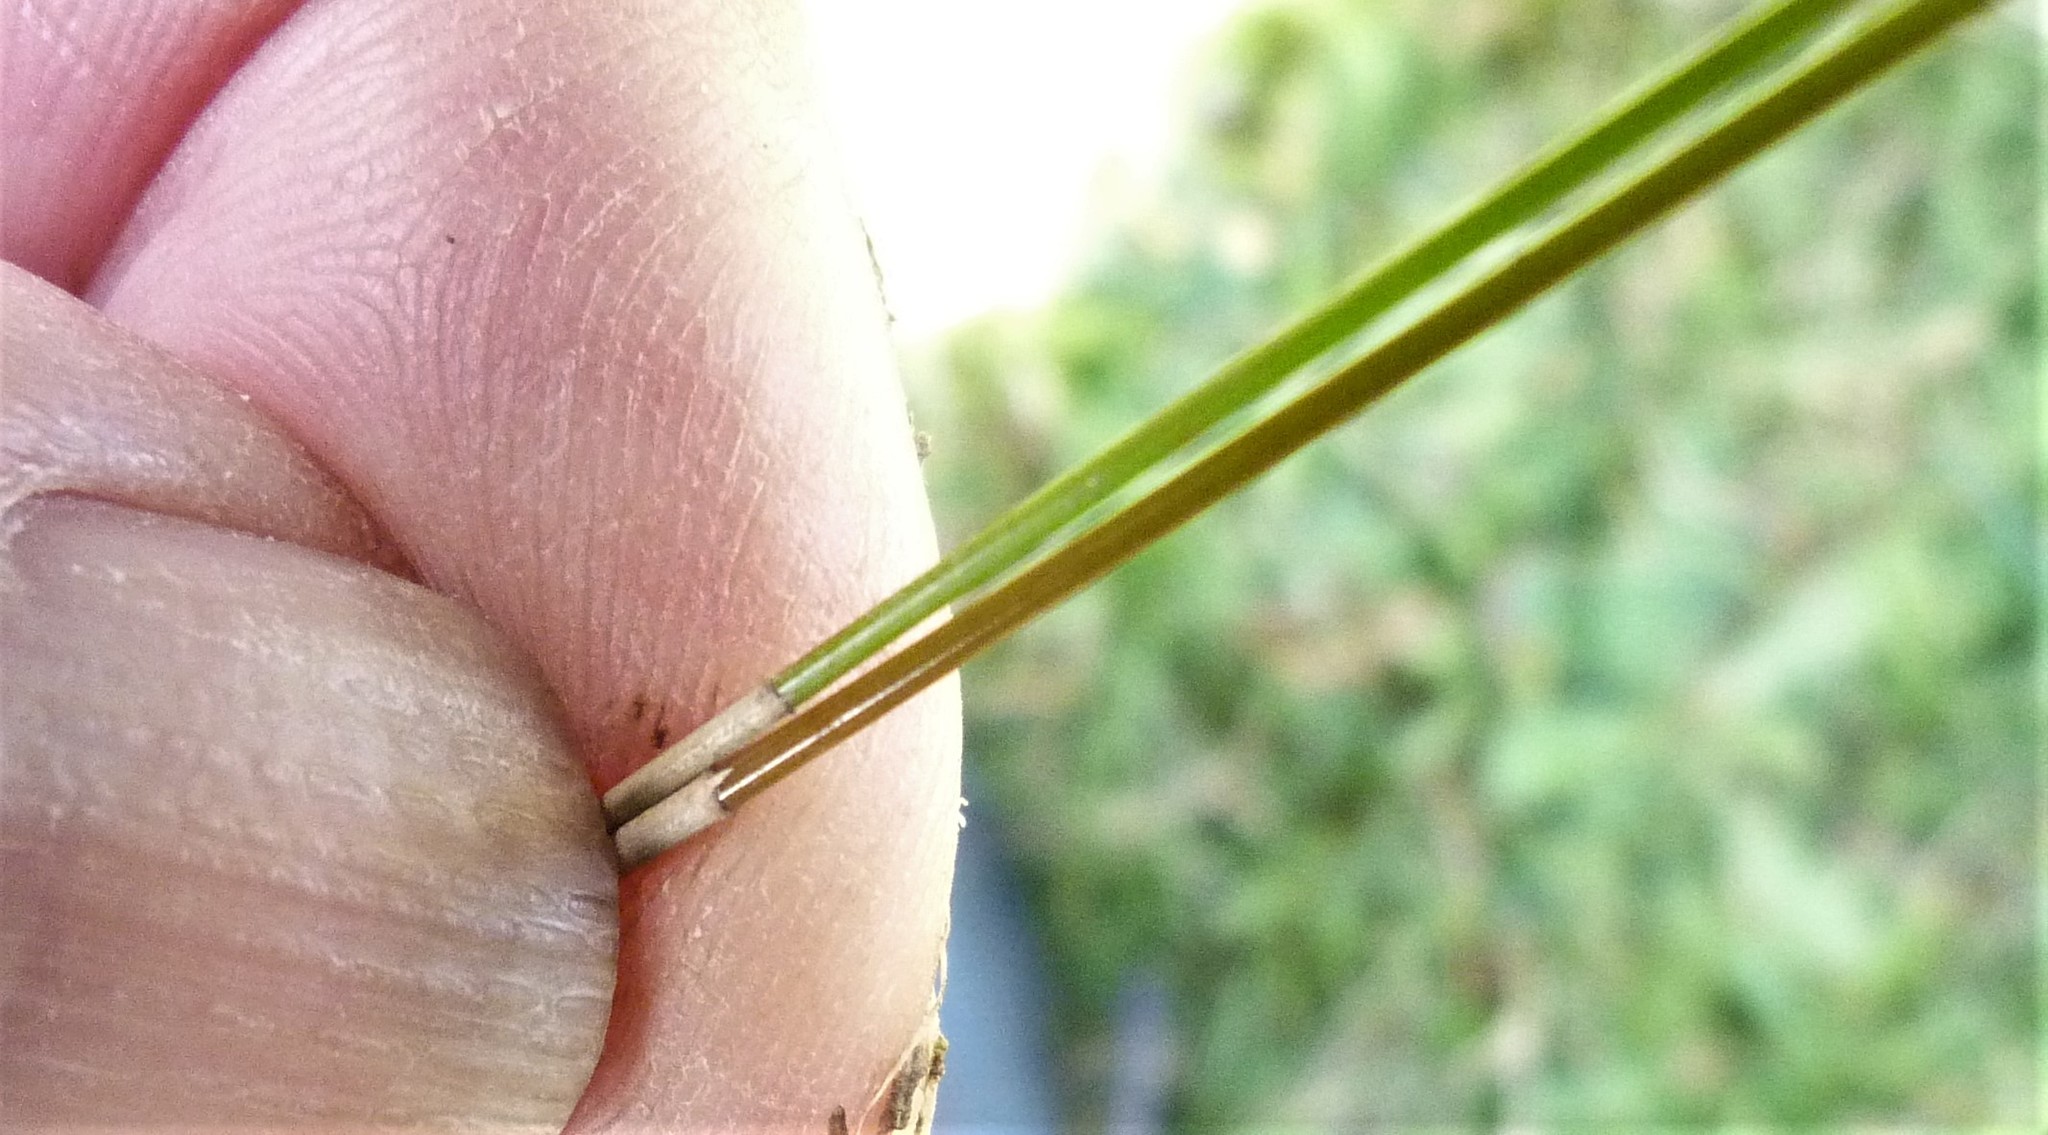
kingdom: Plantae
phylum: Tracheophyta
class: Liliopsida
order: Poales
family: Cyperaceae
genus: Eleocharis
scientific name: Eleocharis acuta
